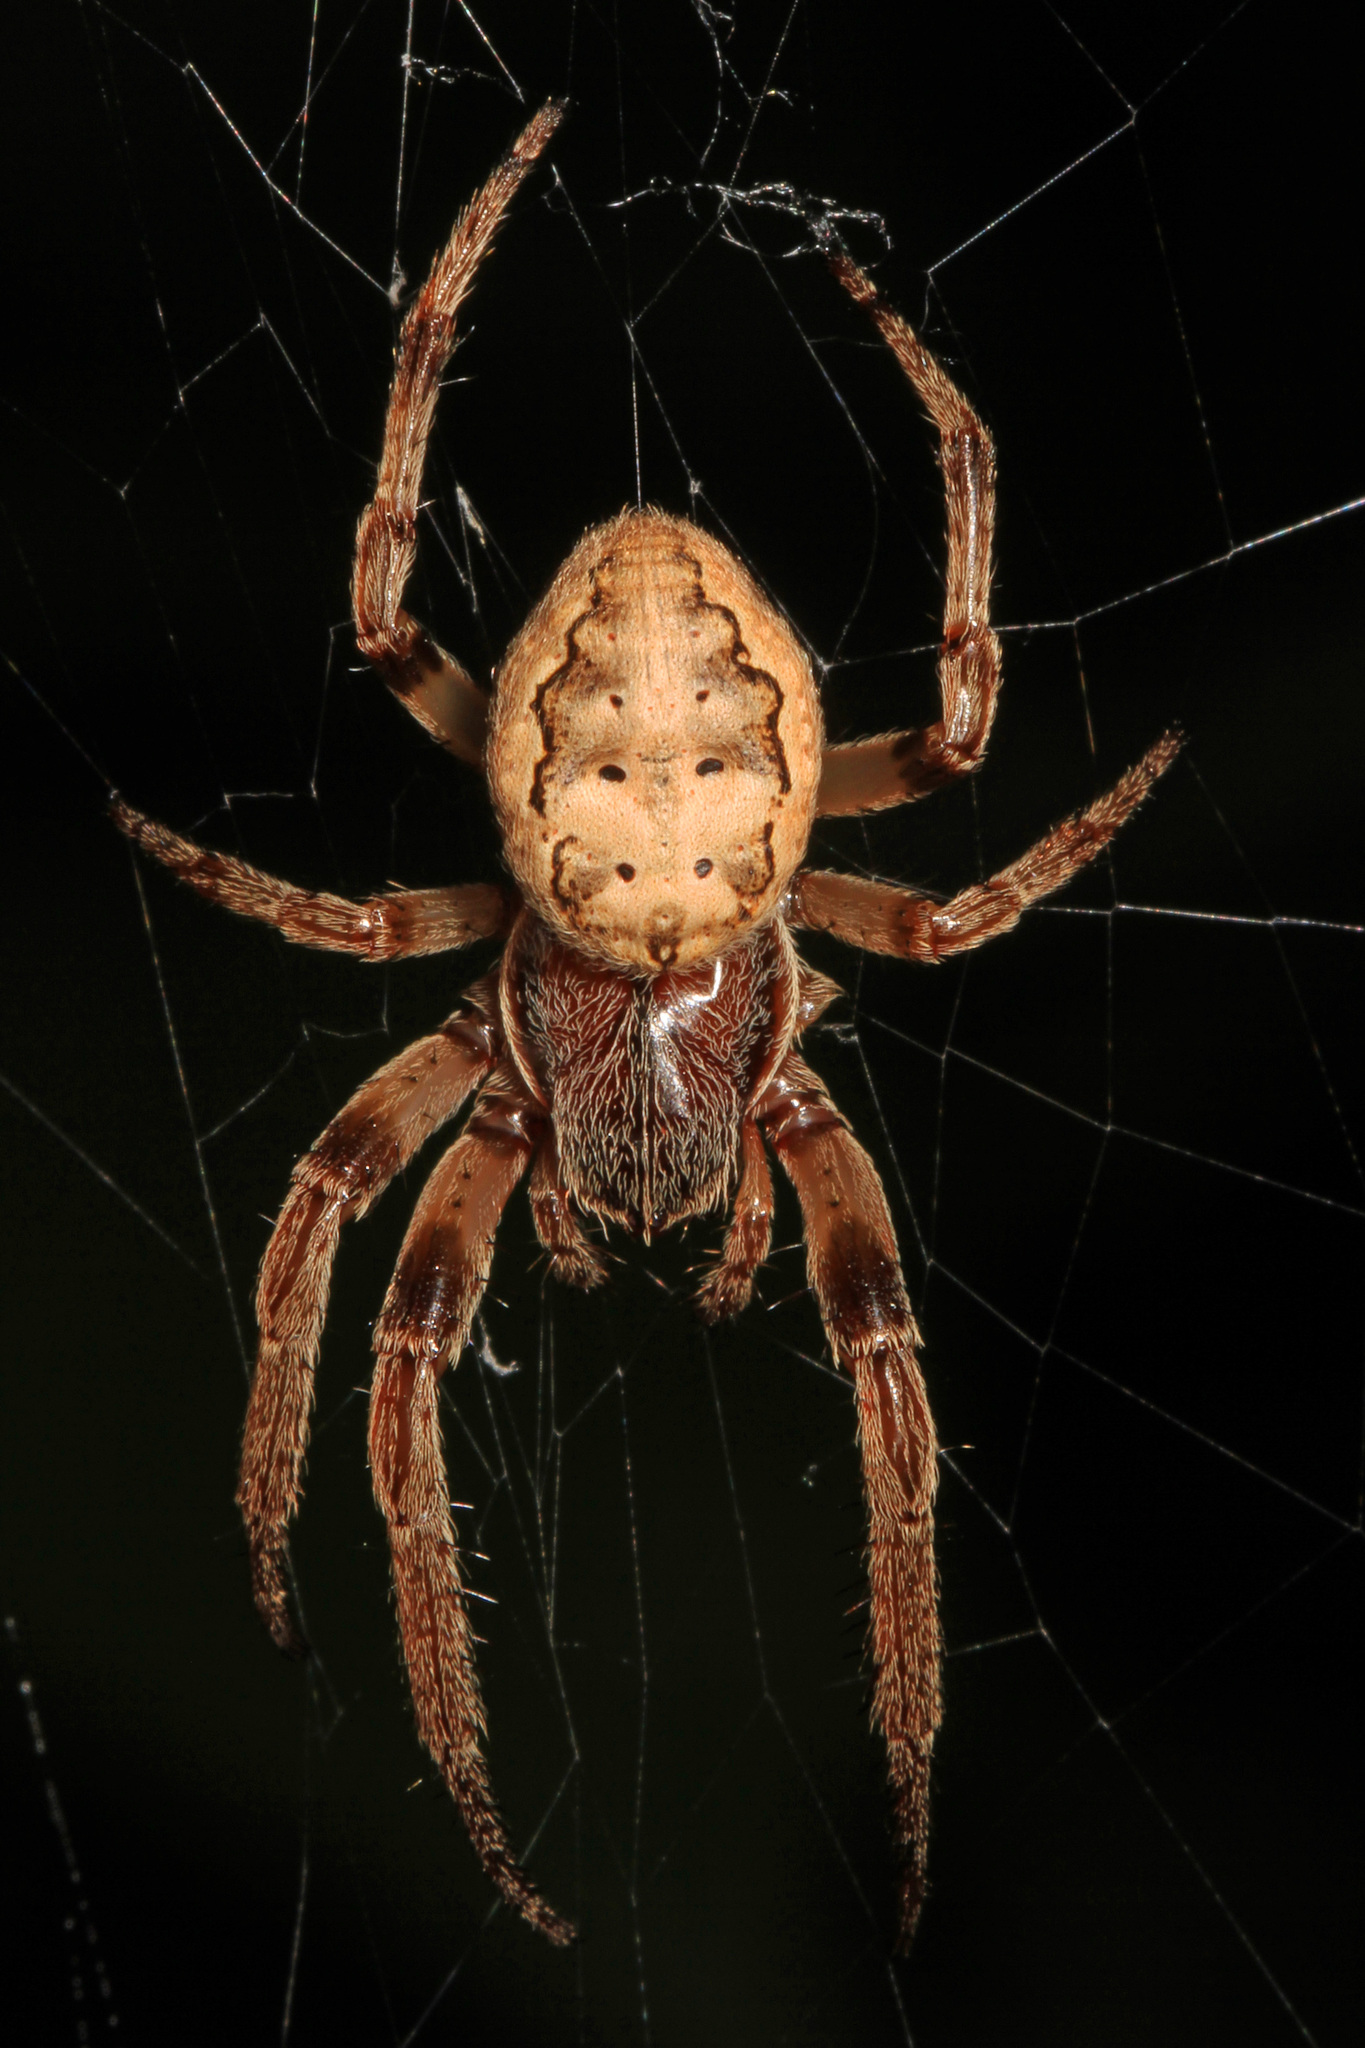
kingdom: Animalia
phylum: Arthropoda
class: Arachnida
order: Araneae
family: Araneidae
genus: Larinioides
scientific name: Larinioides cornutus
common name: Furrow orbweaver
